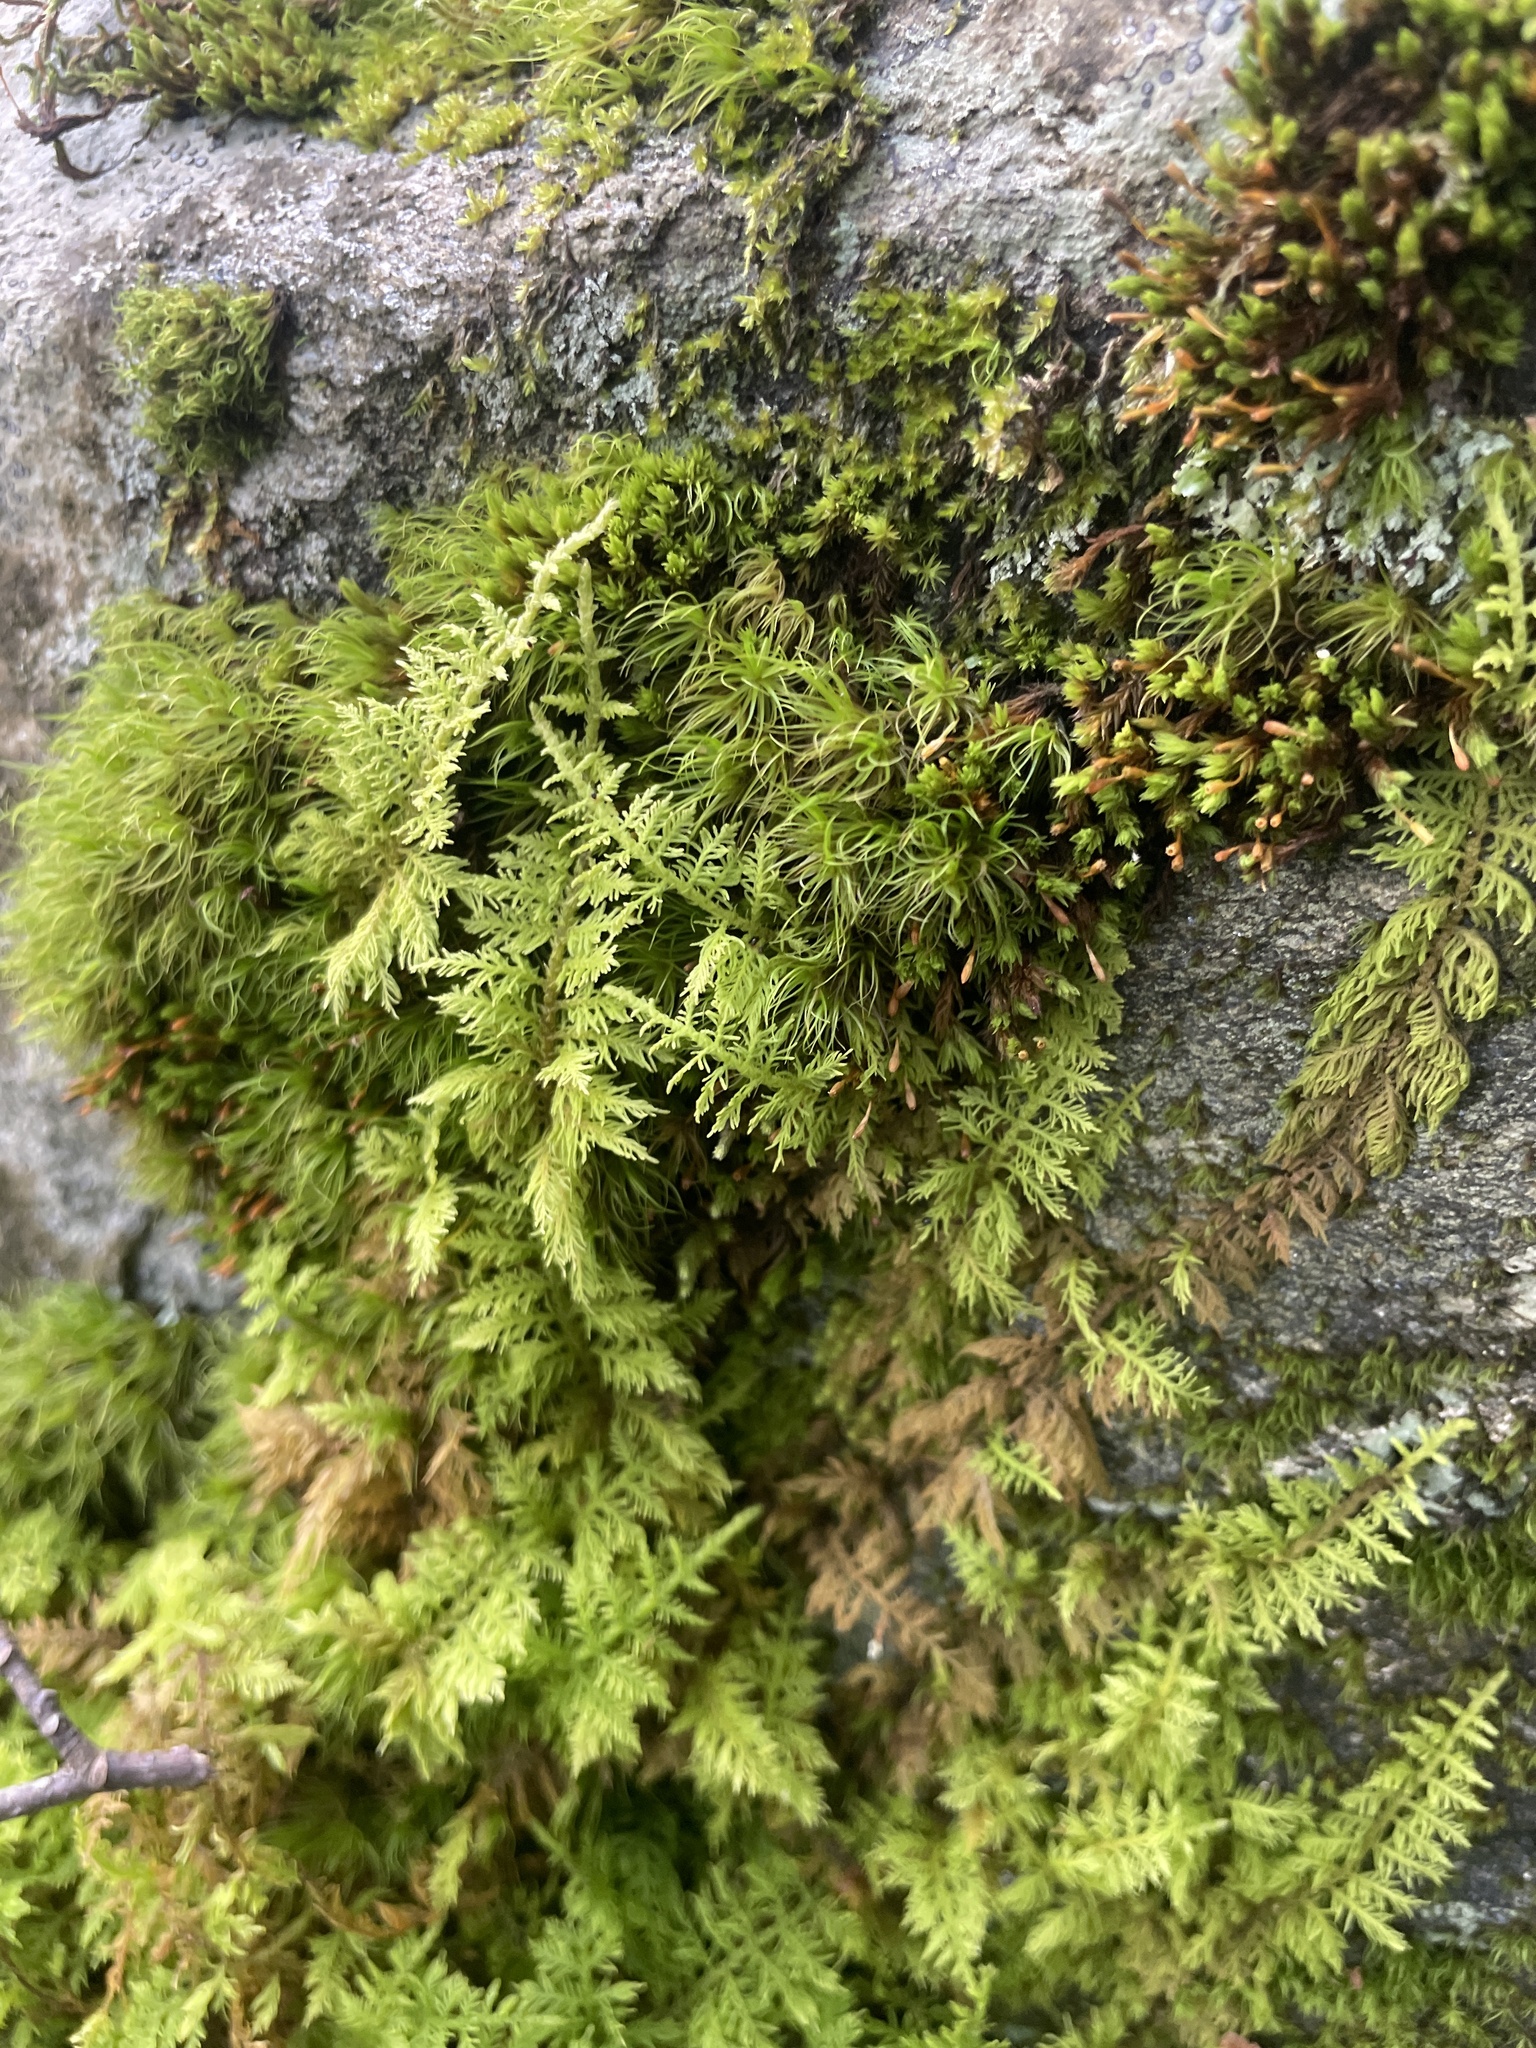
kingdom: Plantae
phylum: Bryophyta
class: Bryopsida
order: Hypnales
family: Thuidiaceae
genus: Thuidium
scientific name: Thuidium delicatulum
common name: Delicate fern moss
